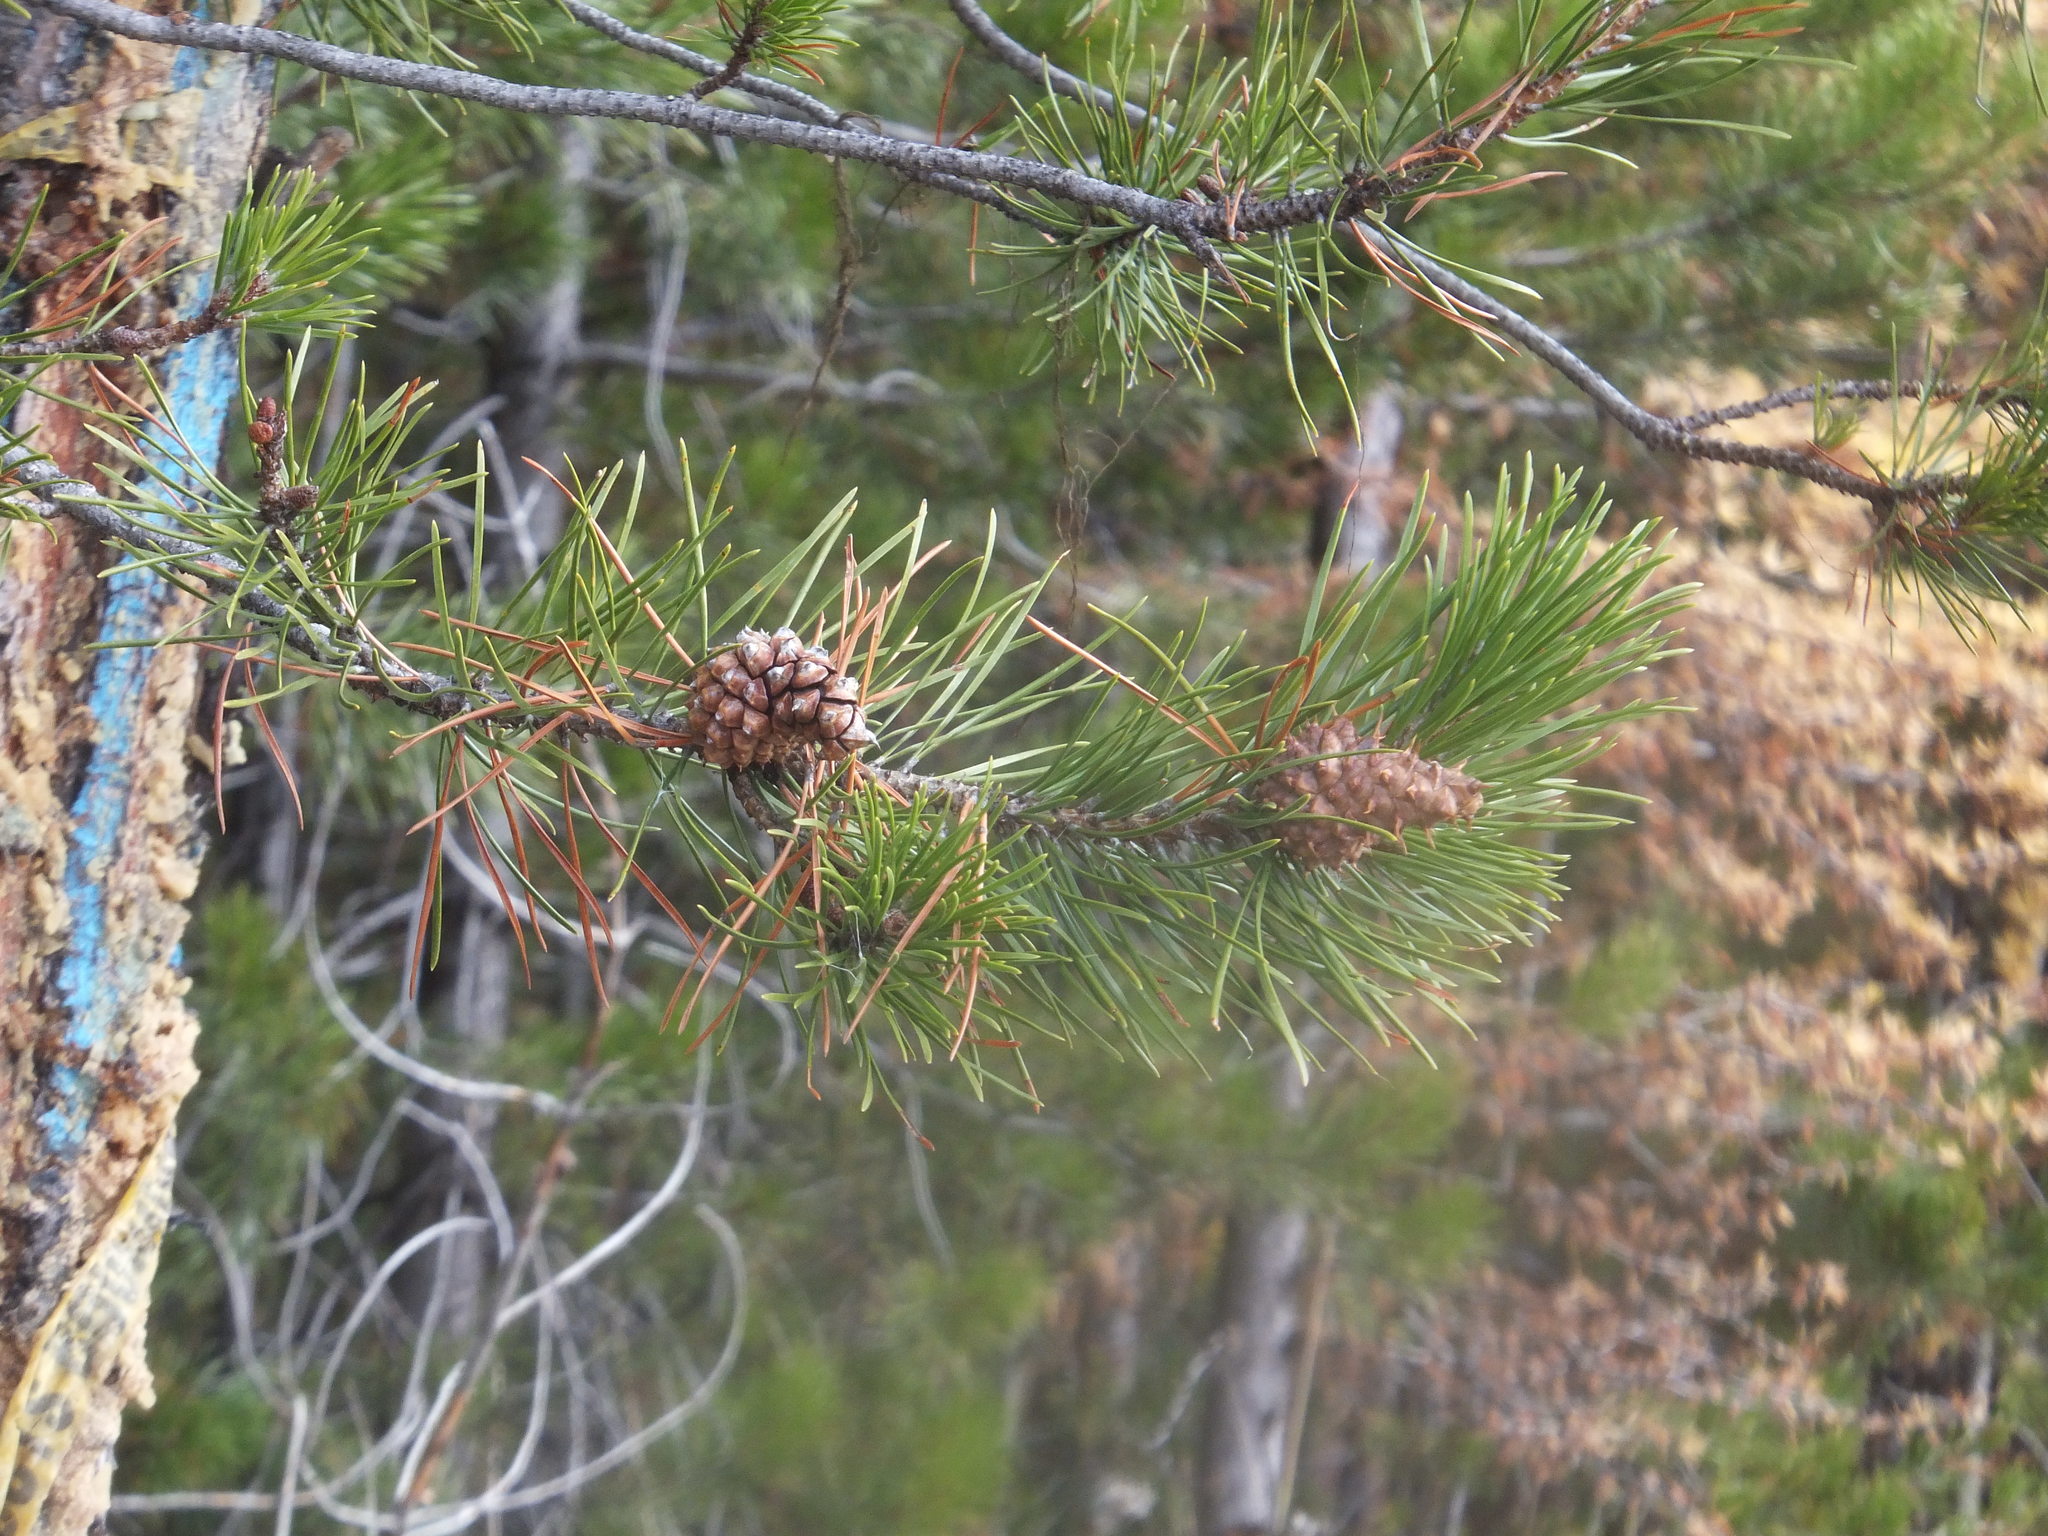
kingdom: Plantae
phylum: Tracheophyta
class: Pinopsida
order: Pinales
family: Pinaceae
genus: Pinus
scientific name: Pinus contorta
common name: Lodgepole pine
